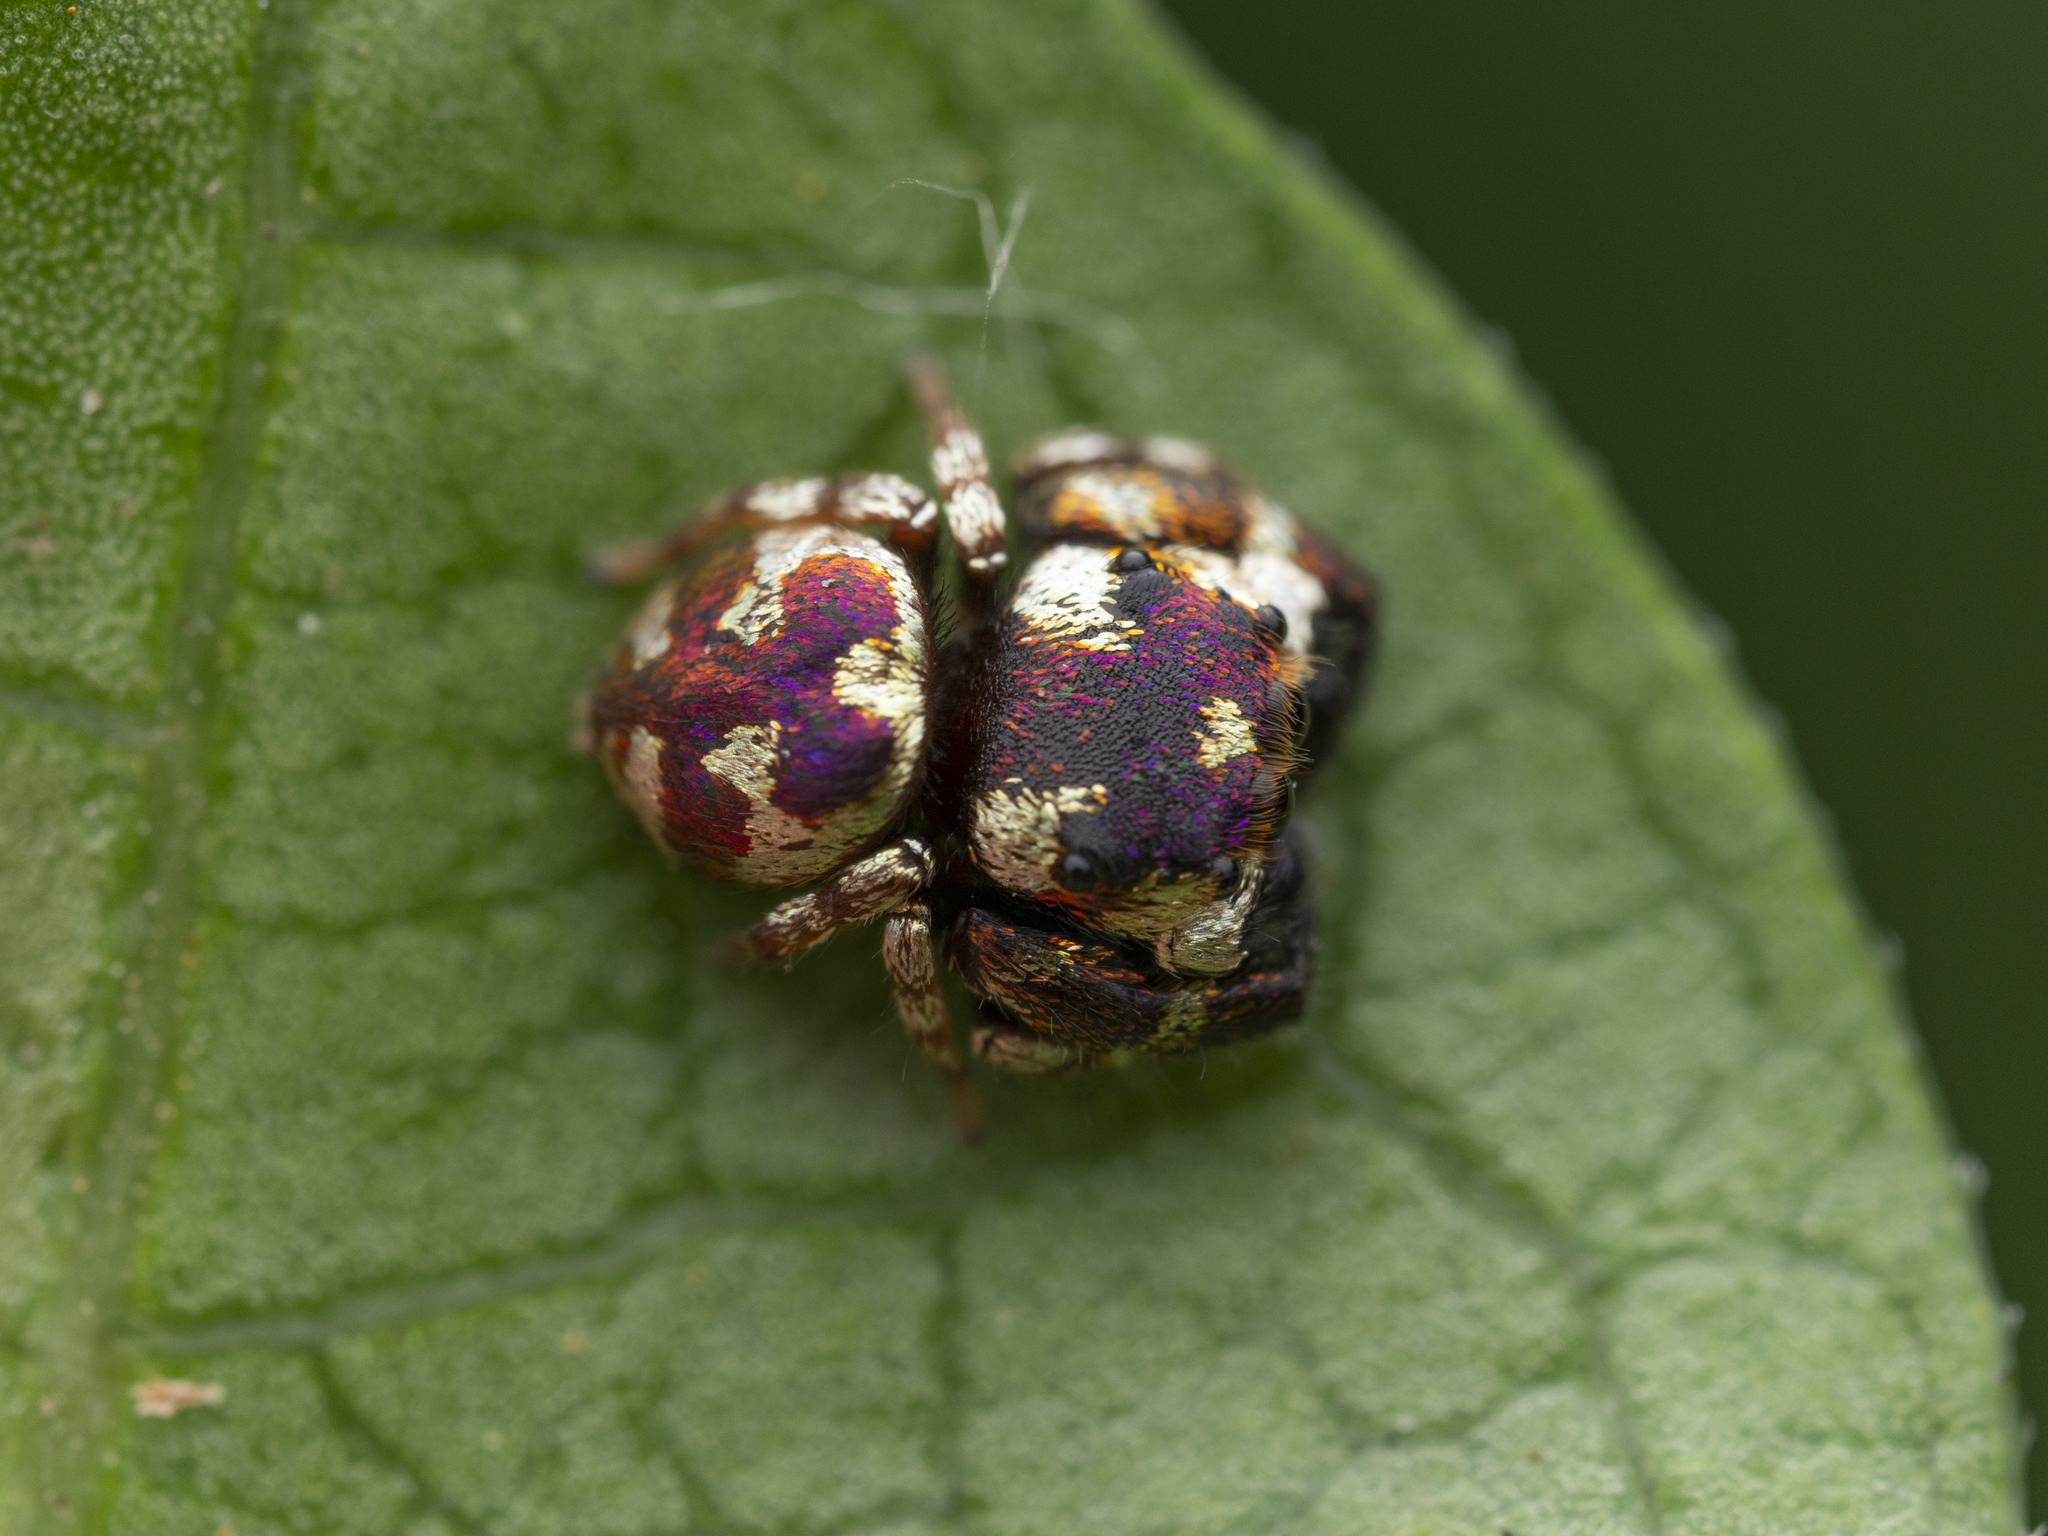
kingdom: Animalia
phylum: Arthropoda
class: Arachnida
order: Araneae
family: Salticidae
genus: Irura
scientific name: Irura bidenticulata
